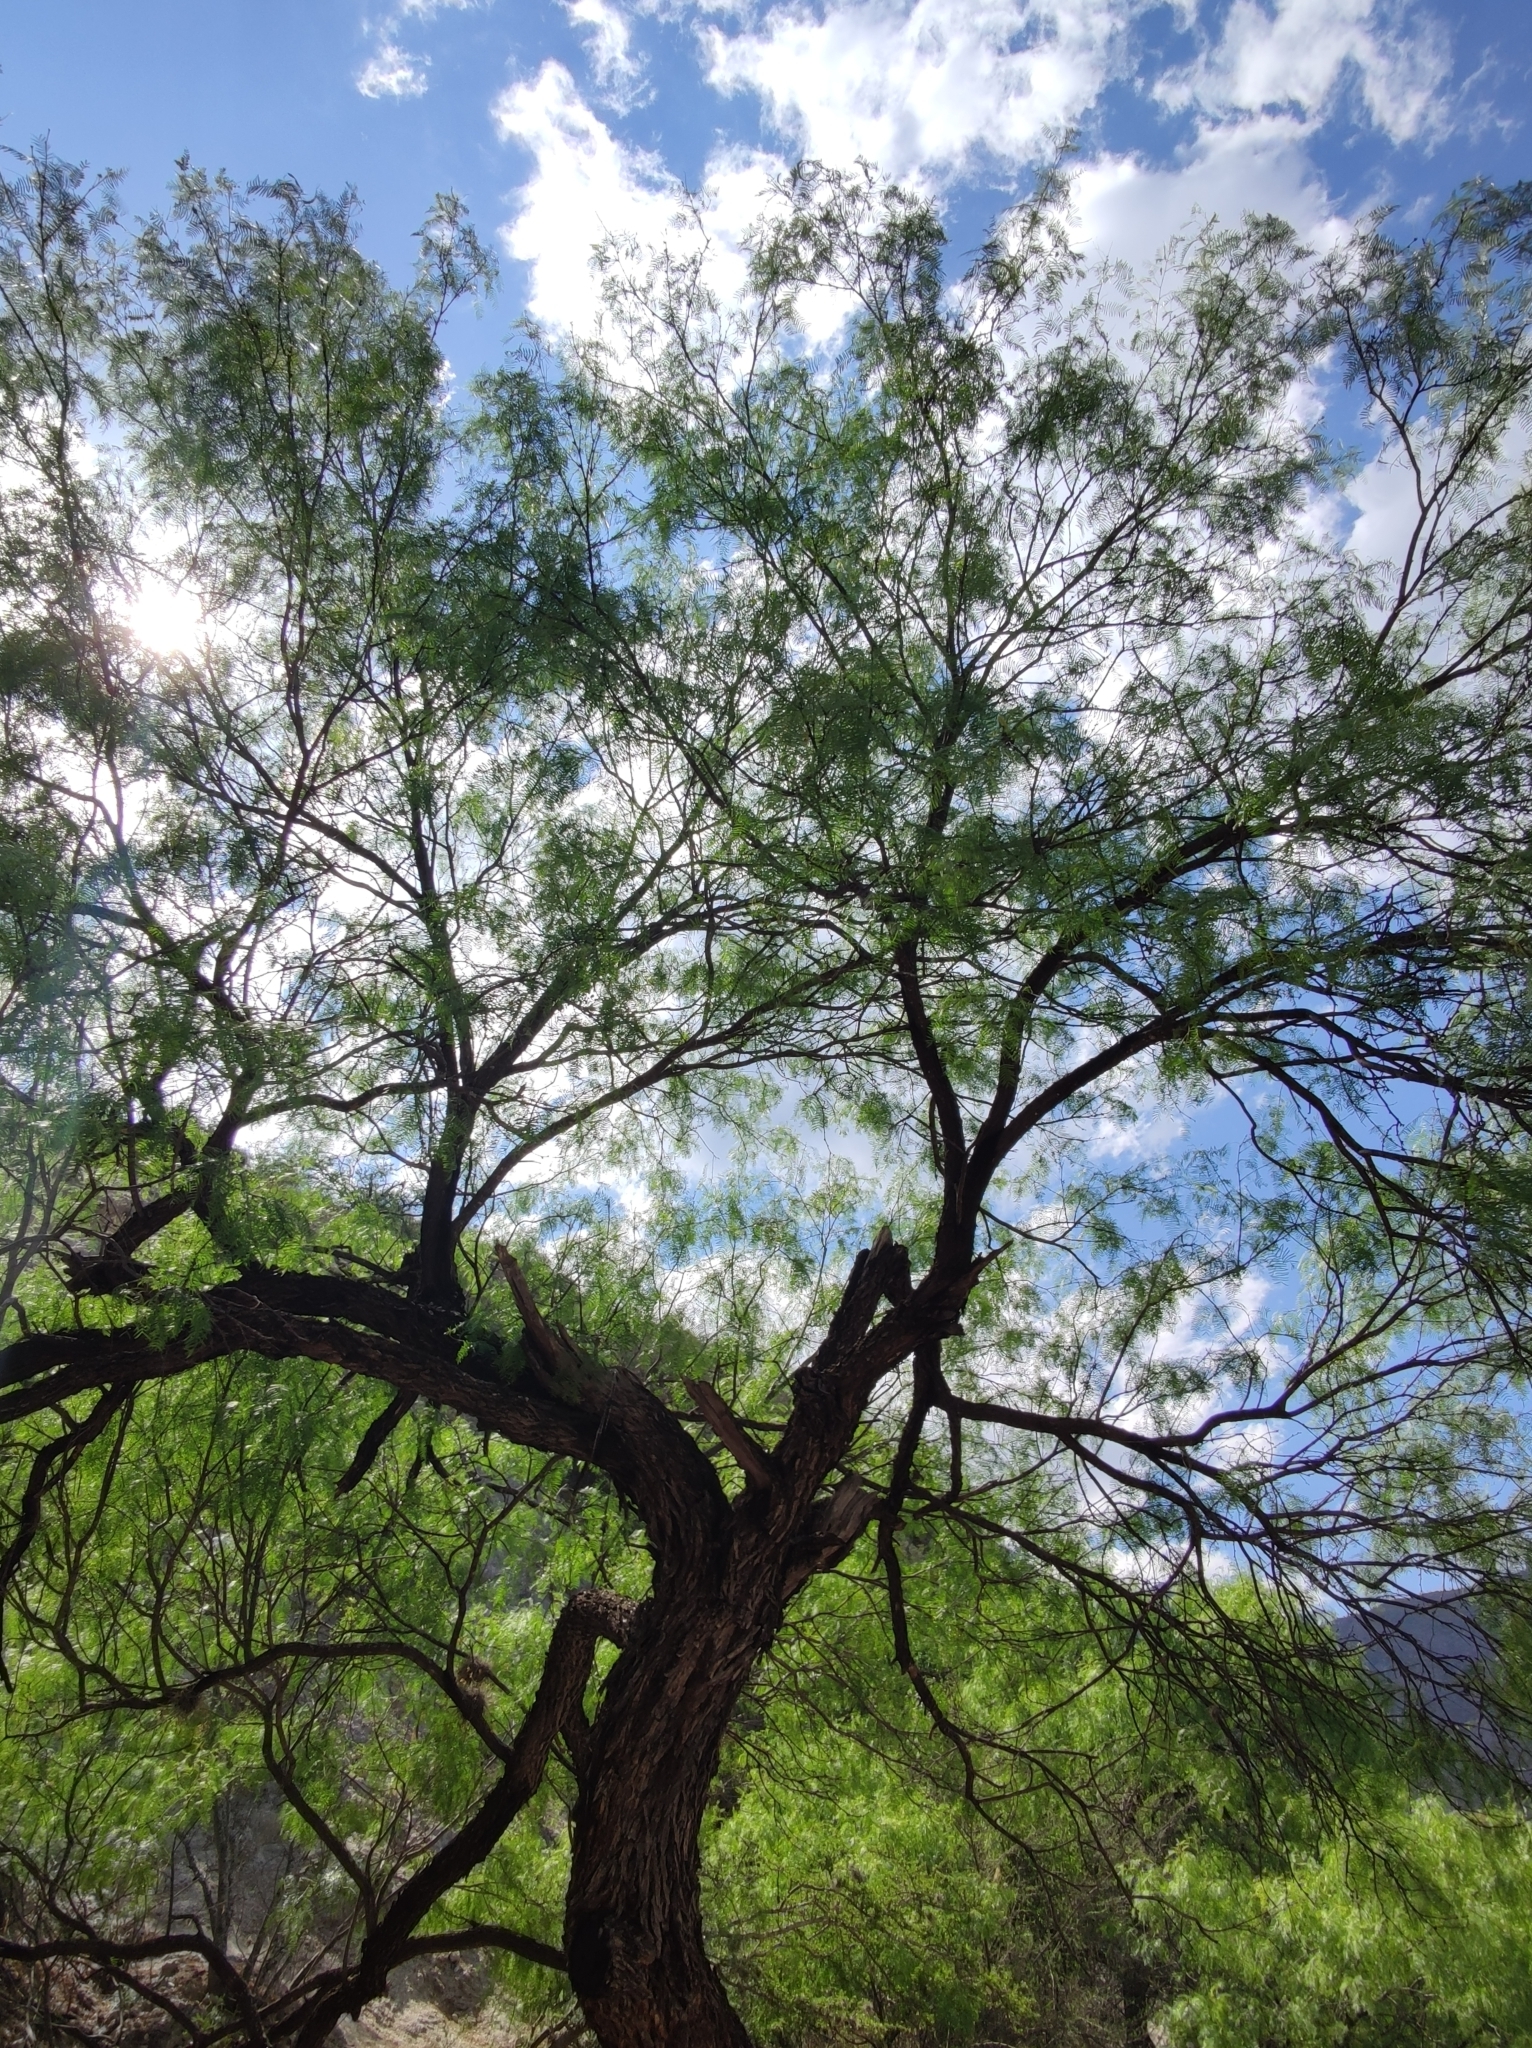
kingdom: Plantae
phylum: Tracheophyta
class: Magnoliopsida
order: Fabales
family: Fabaceae
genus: Prosopis
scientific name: Prosopis glandulosa
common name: Honey mesquite
